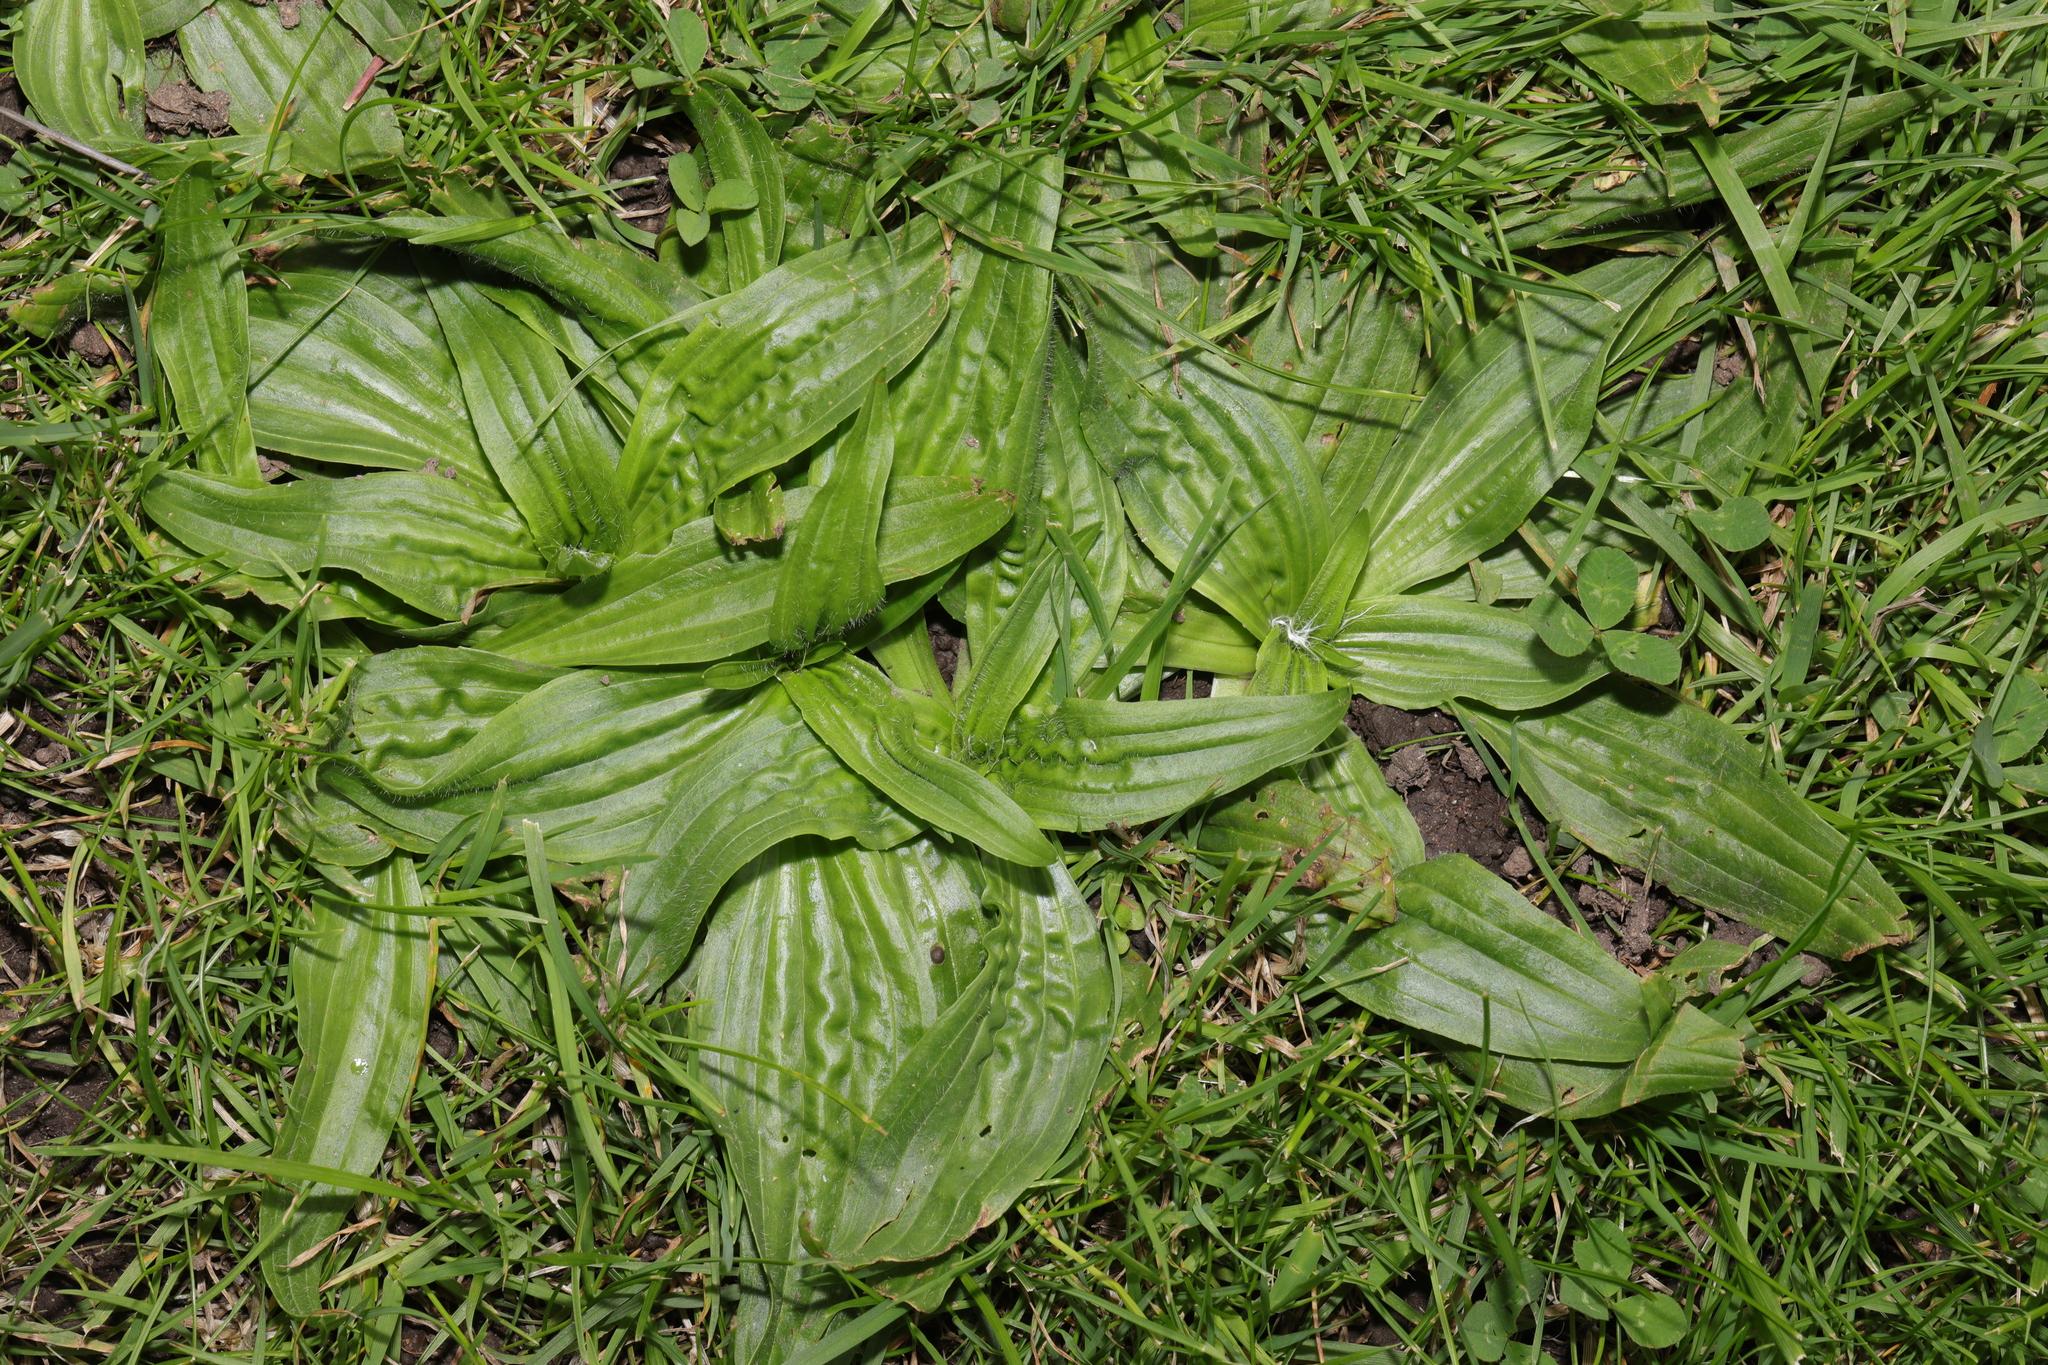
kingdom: Plantae
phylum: Tracheophyta
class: Magnoliopsida
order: Lamiales
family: Plantaginaceae
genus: Plantago
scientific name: Plantago lanceolata
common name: Ribwort plantain
